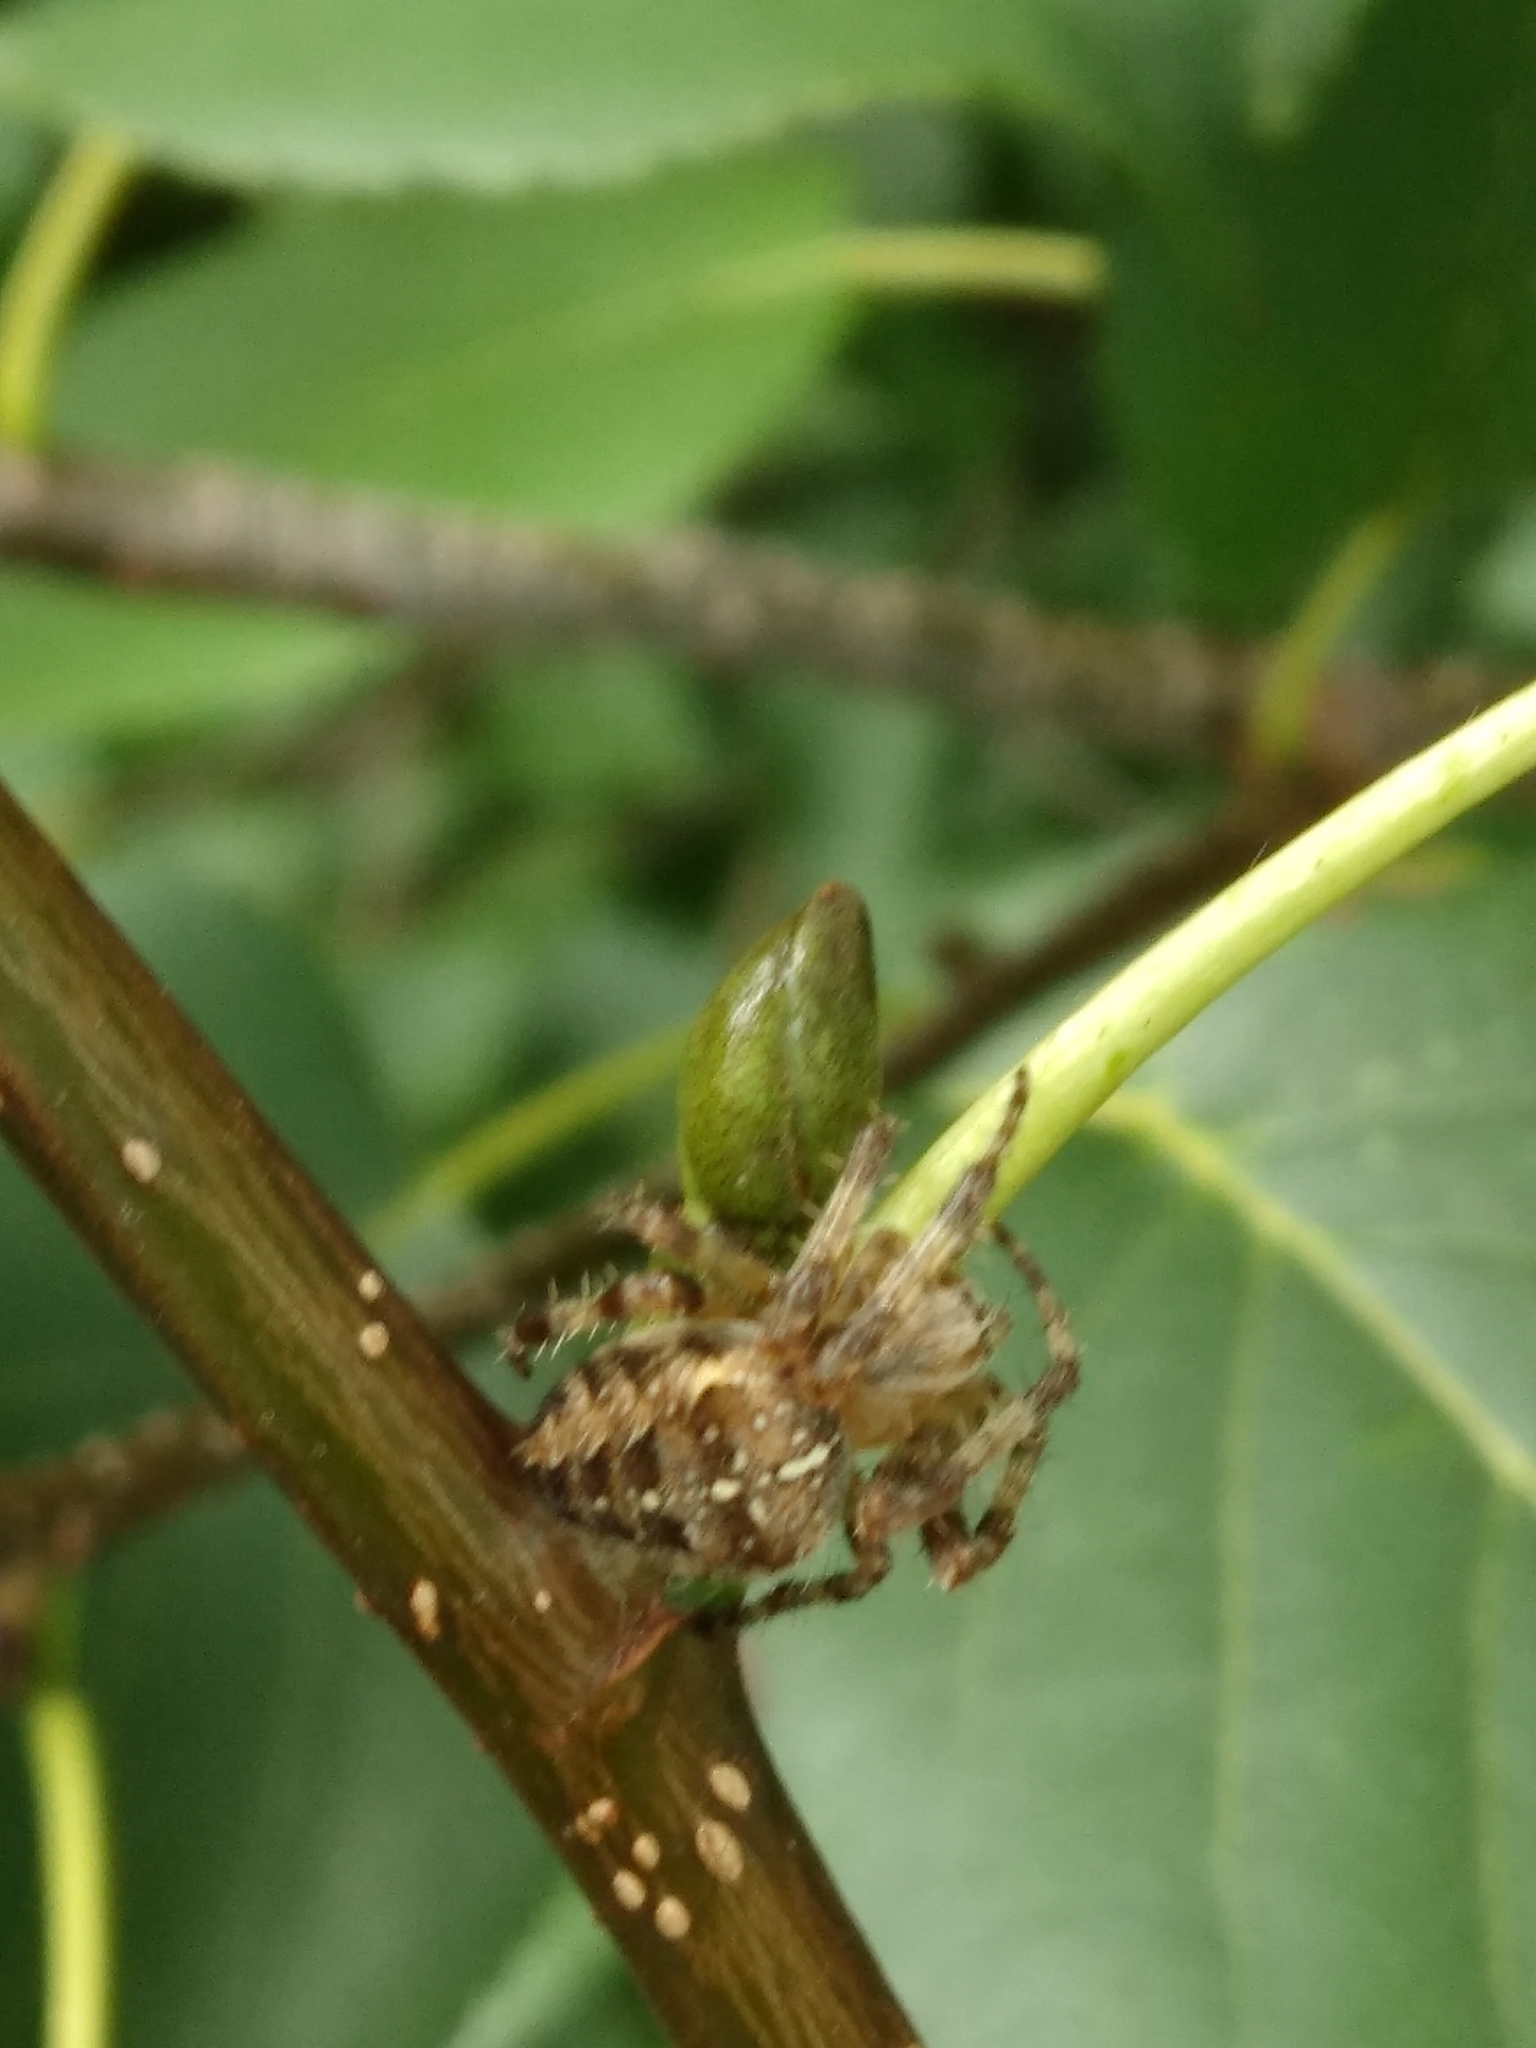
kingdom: Animalia
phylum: Arthropoda
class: Arachnida
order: Araneae
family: Araneidae
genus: Araneus
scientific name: Araneus diadematus
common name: Cross orbweaver
